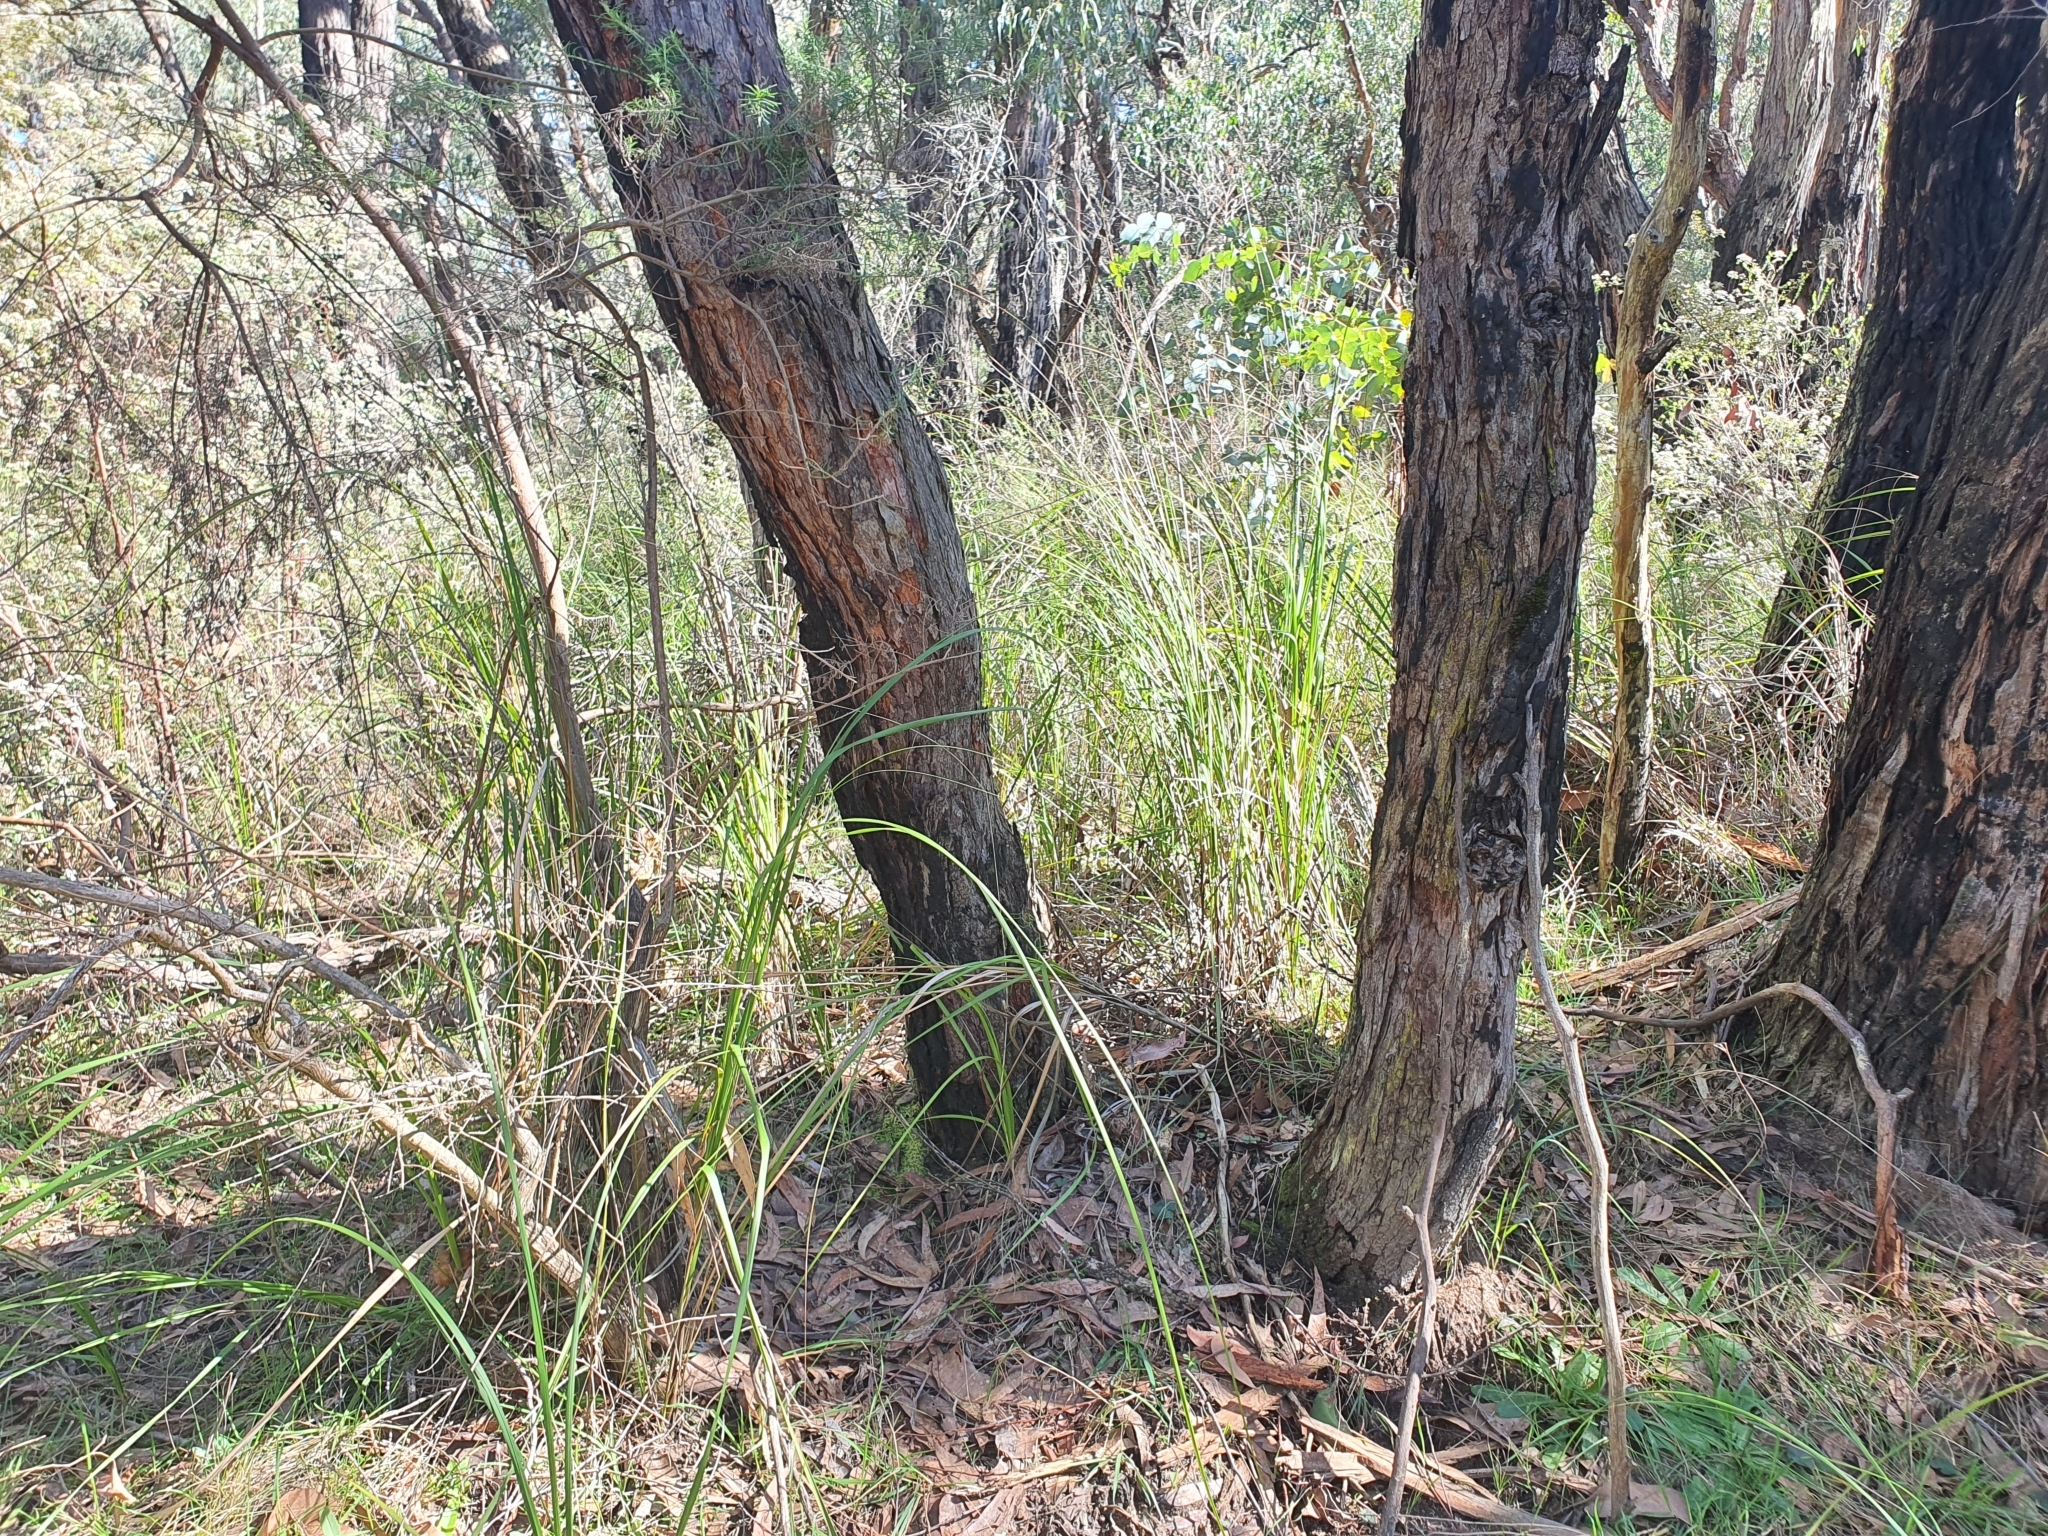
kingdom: Plantae
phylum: Tracheophyta
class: Liliopsida
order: Asparagales
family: Orchidaceae
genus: Acianthus
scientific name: Acianthus caudatus
